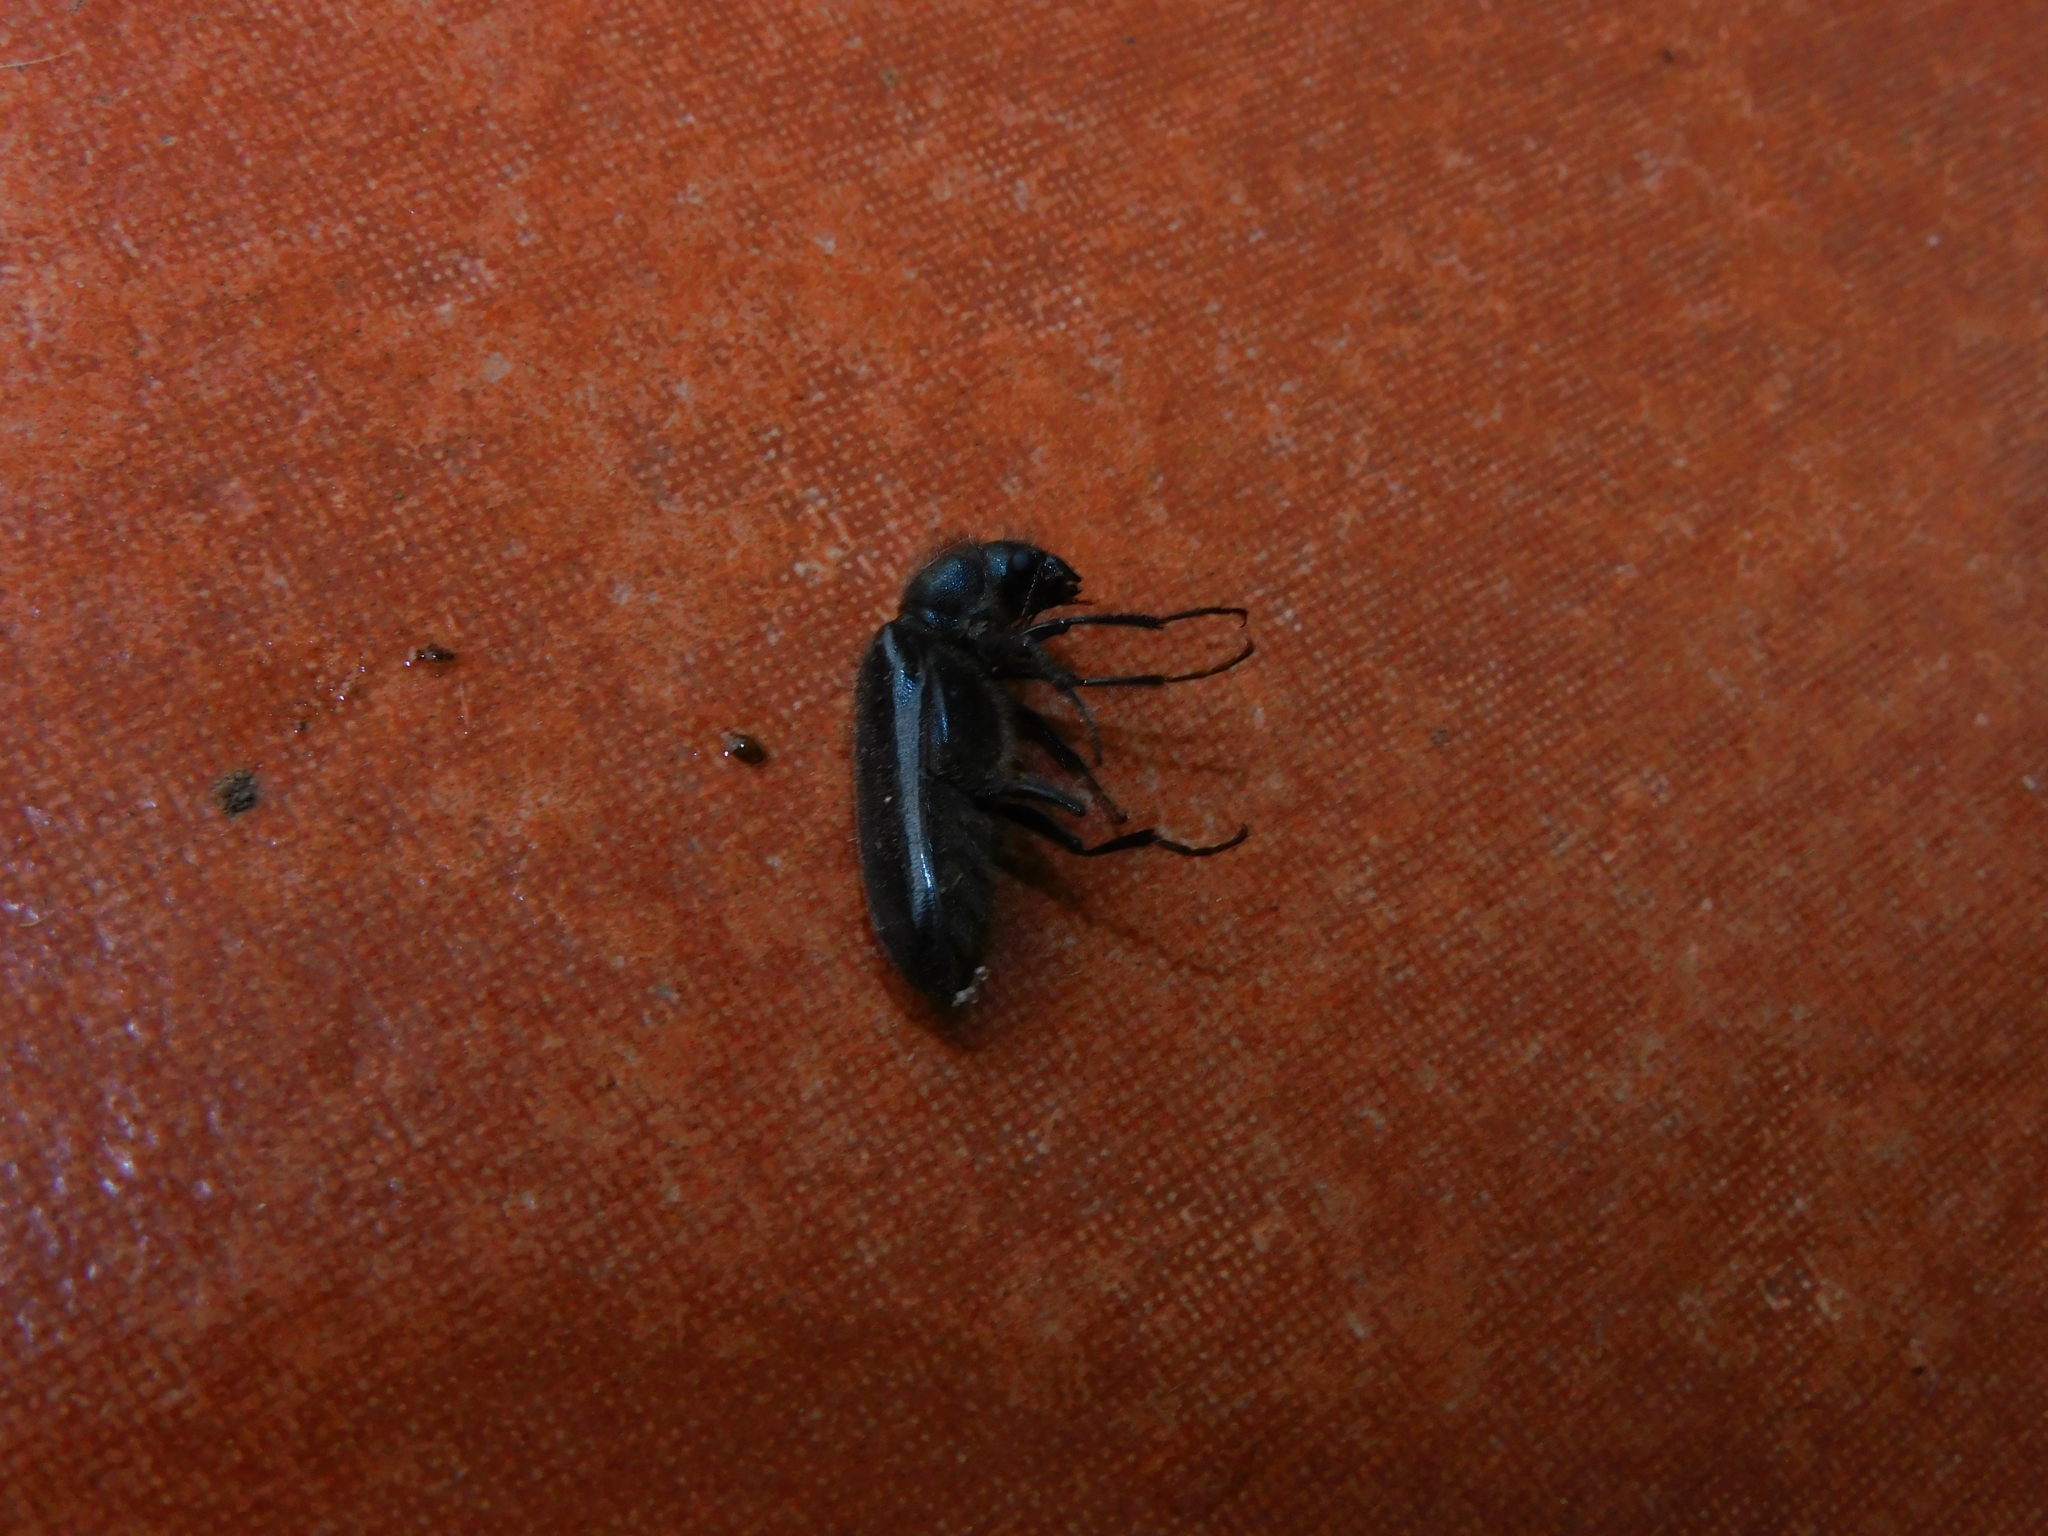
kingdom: Animalia
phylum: Arthropoda
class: Insecta
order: Coleoptera
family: Bostrichidae
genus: Polycaon
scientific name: Polycaon chilensis
